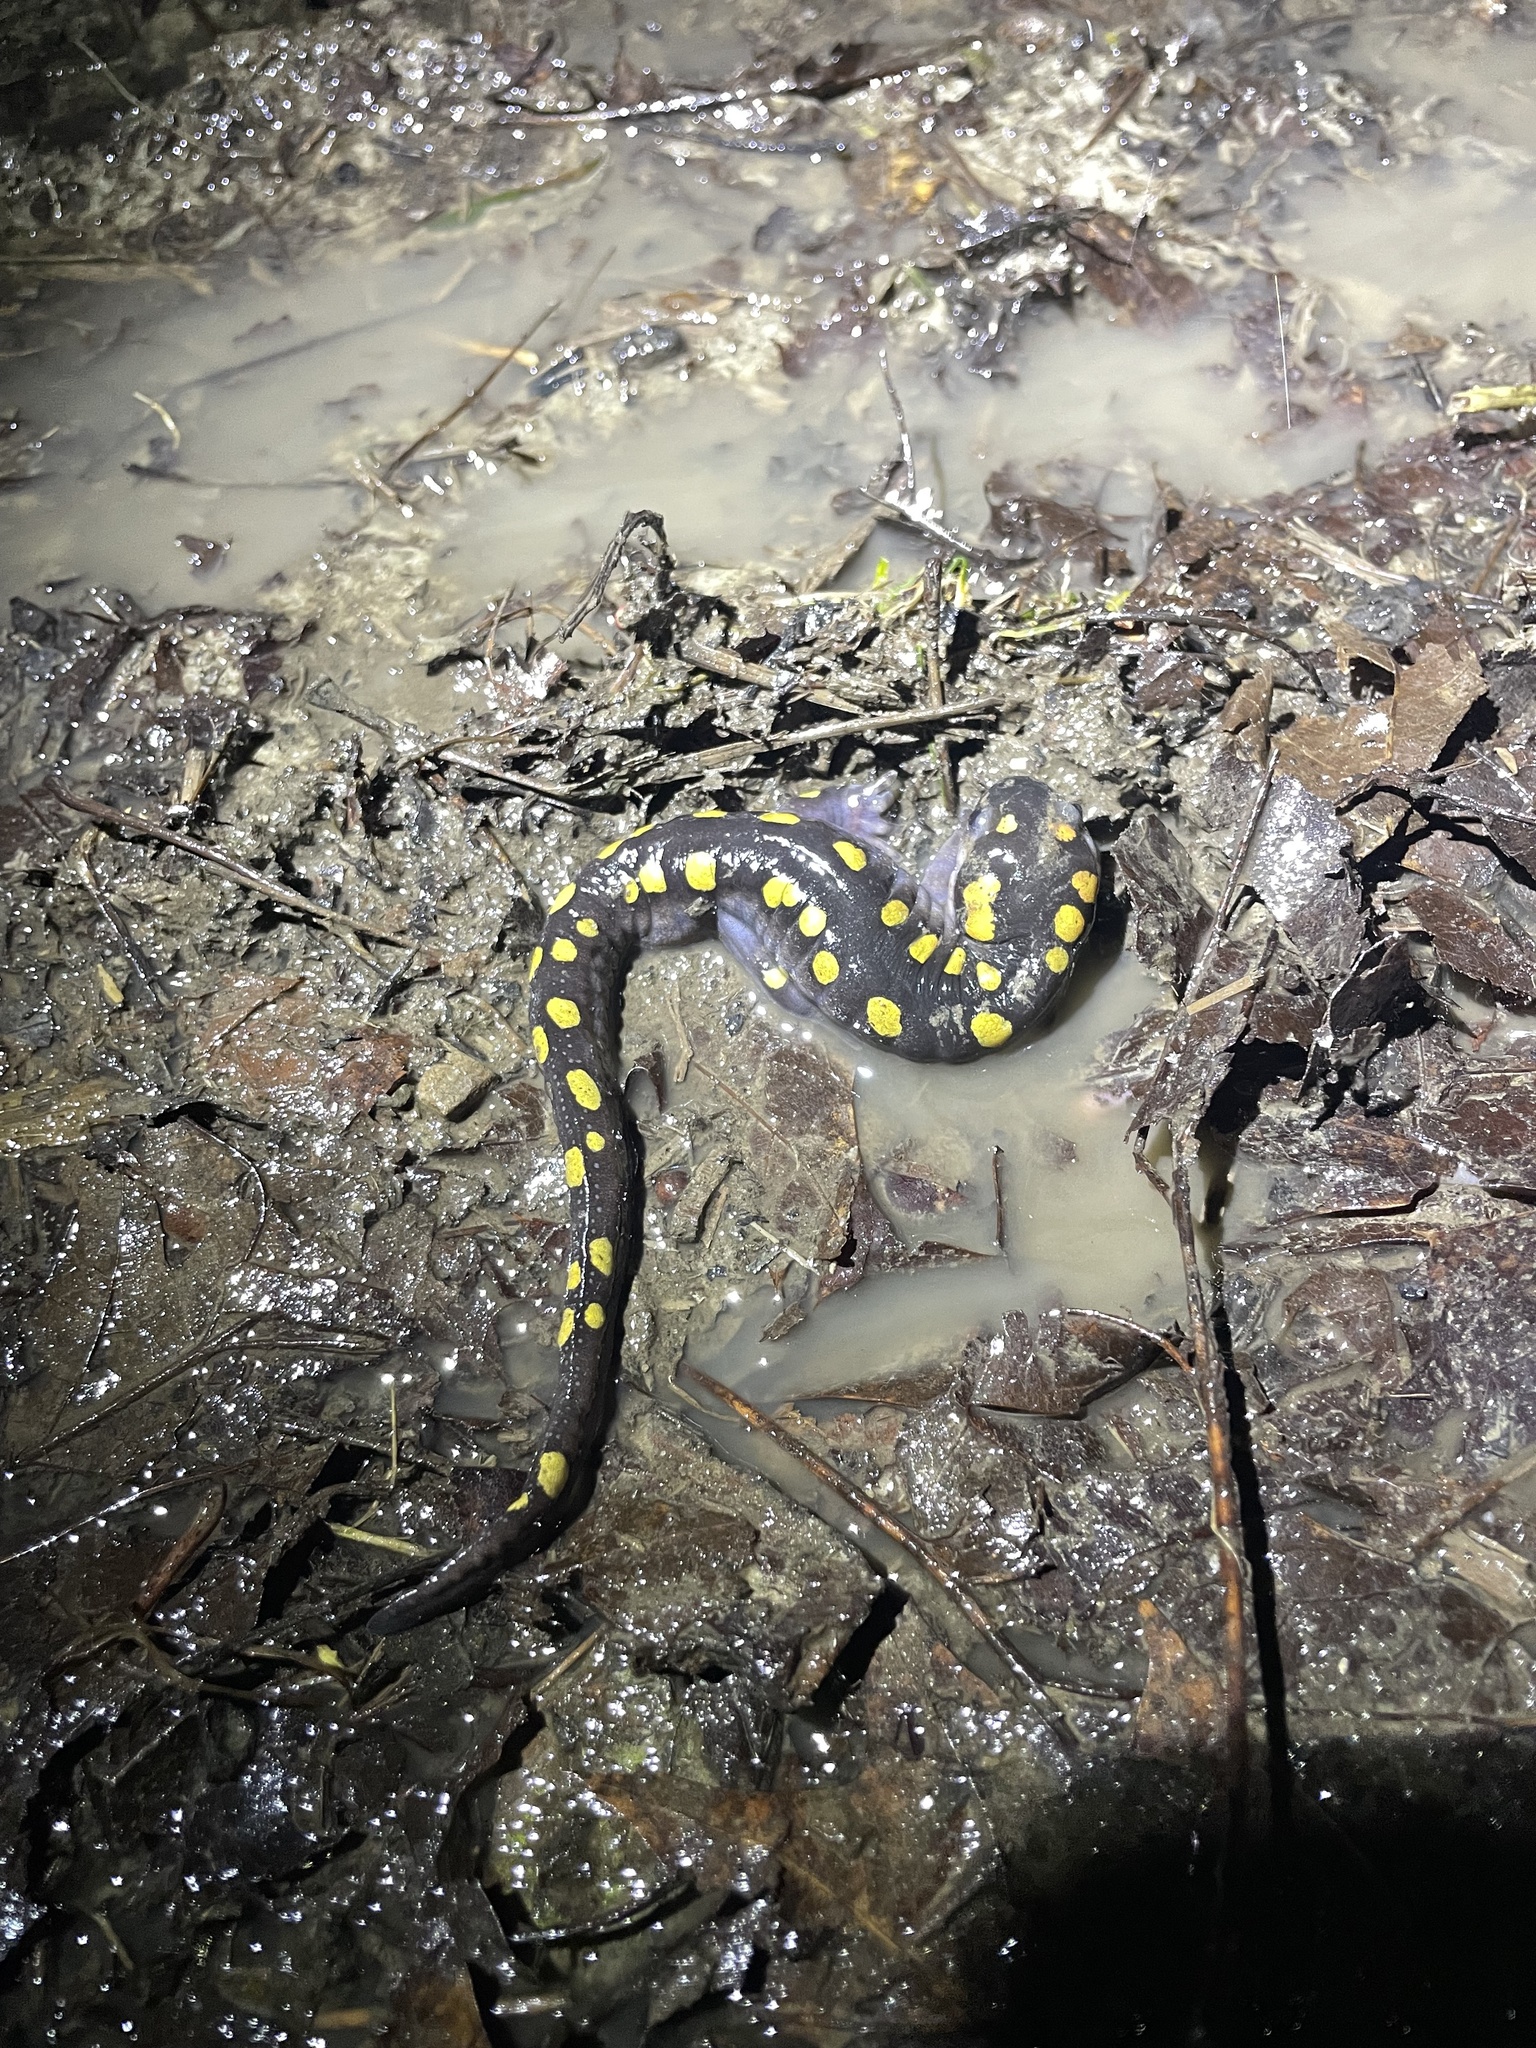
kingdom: Animalia
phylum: Chordata
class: Amphibia
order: Caudata
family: Ambystomatidae
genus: Ambystoma
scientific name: Ambystoma maculatum
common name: Spotted salamander
